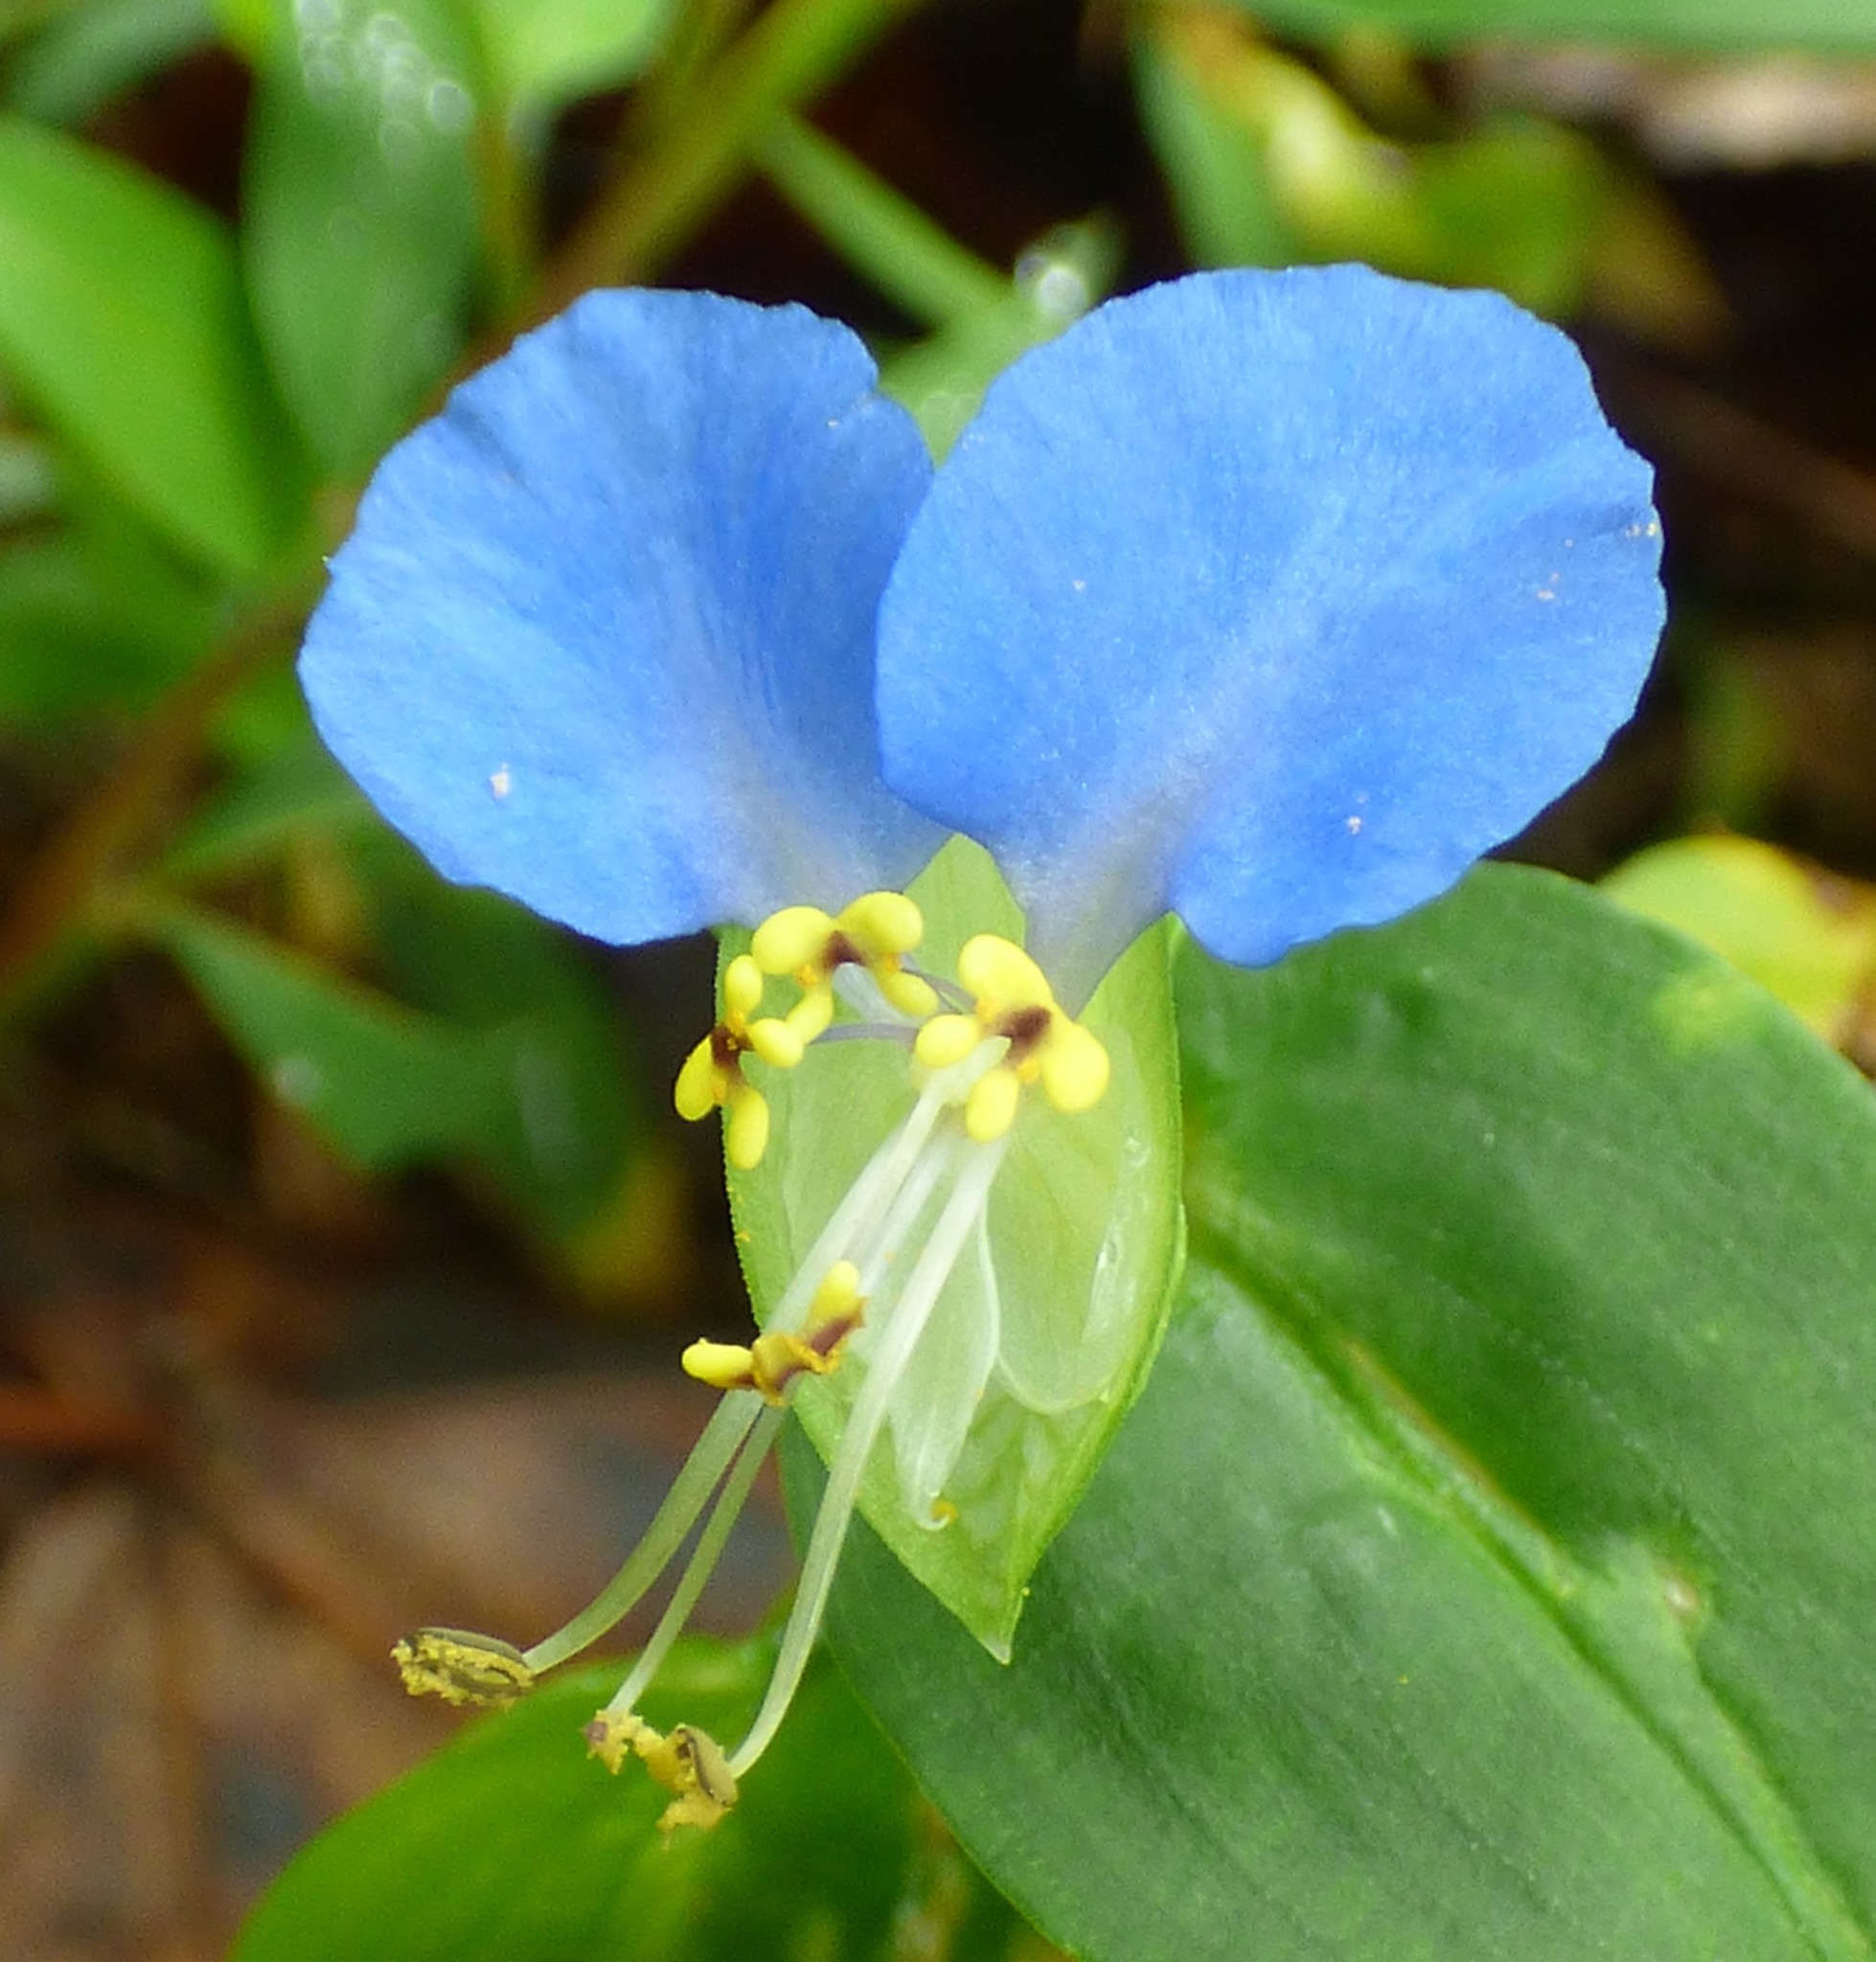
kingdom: Plantae
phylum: Tracheophyta
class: Liliopsida
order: Commelinales
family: Commelinaceae
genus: Commelina
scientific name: Commelina communis
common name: Asiatic dayflower
